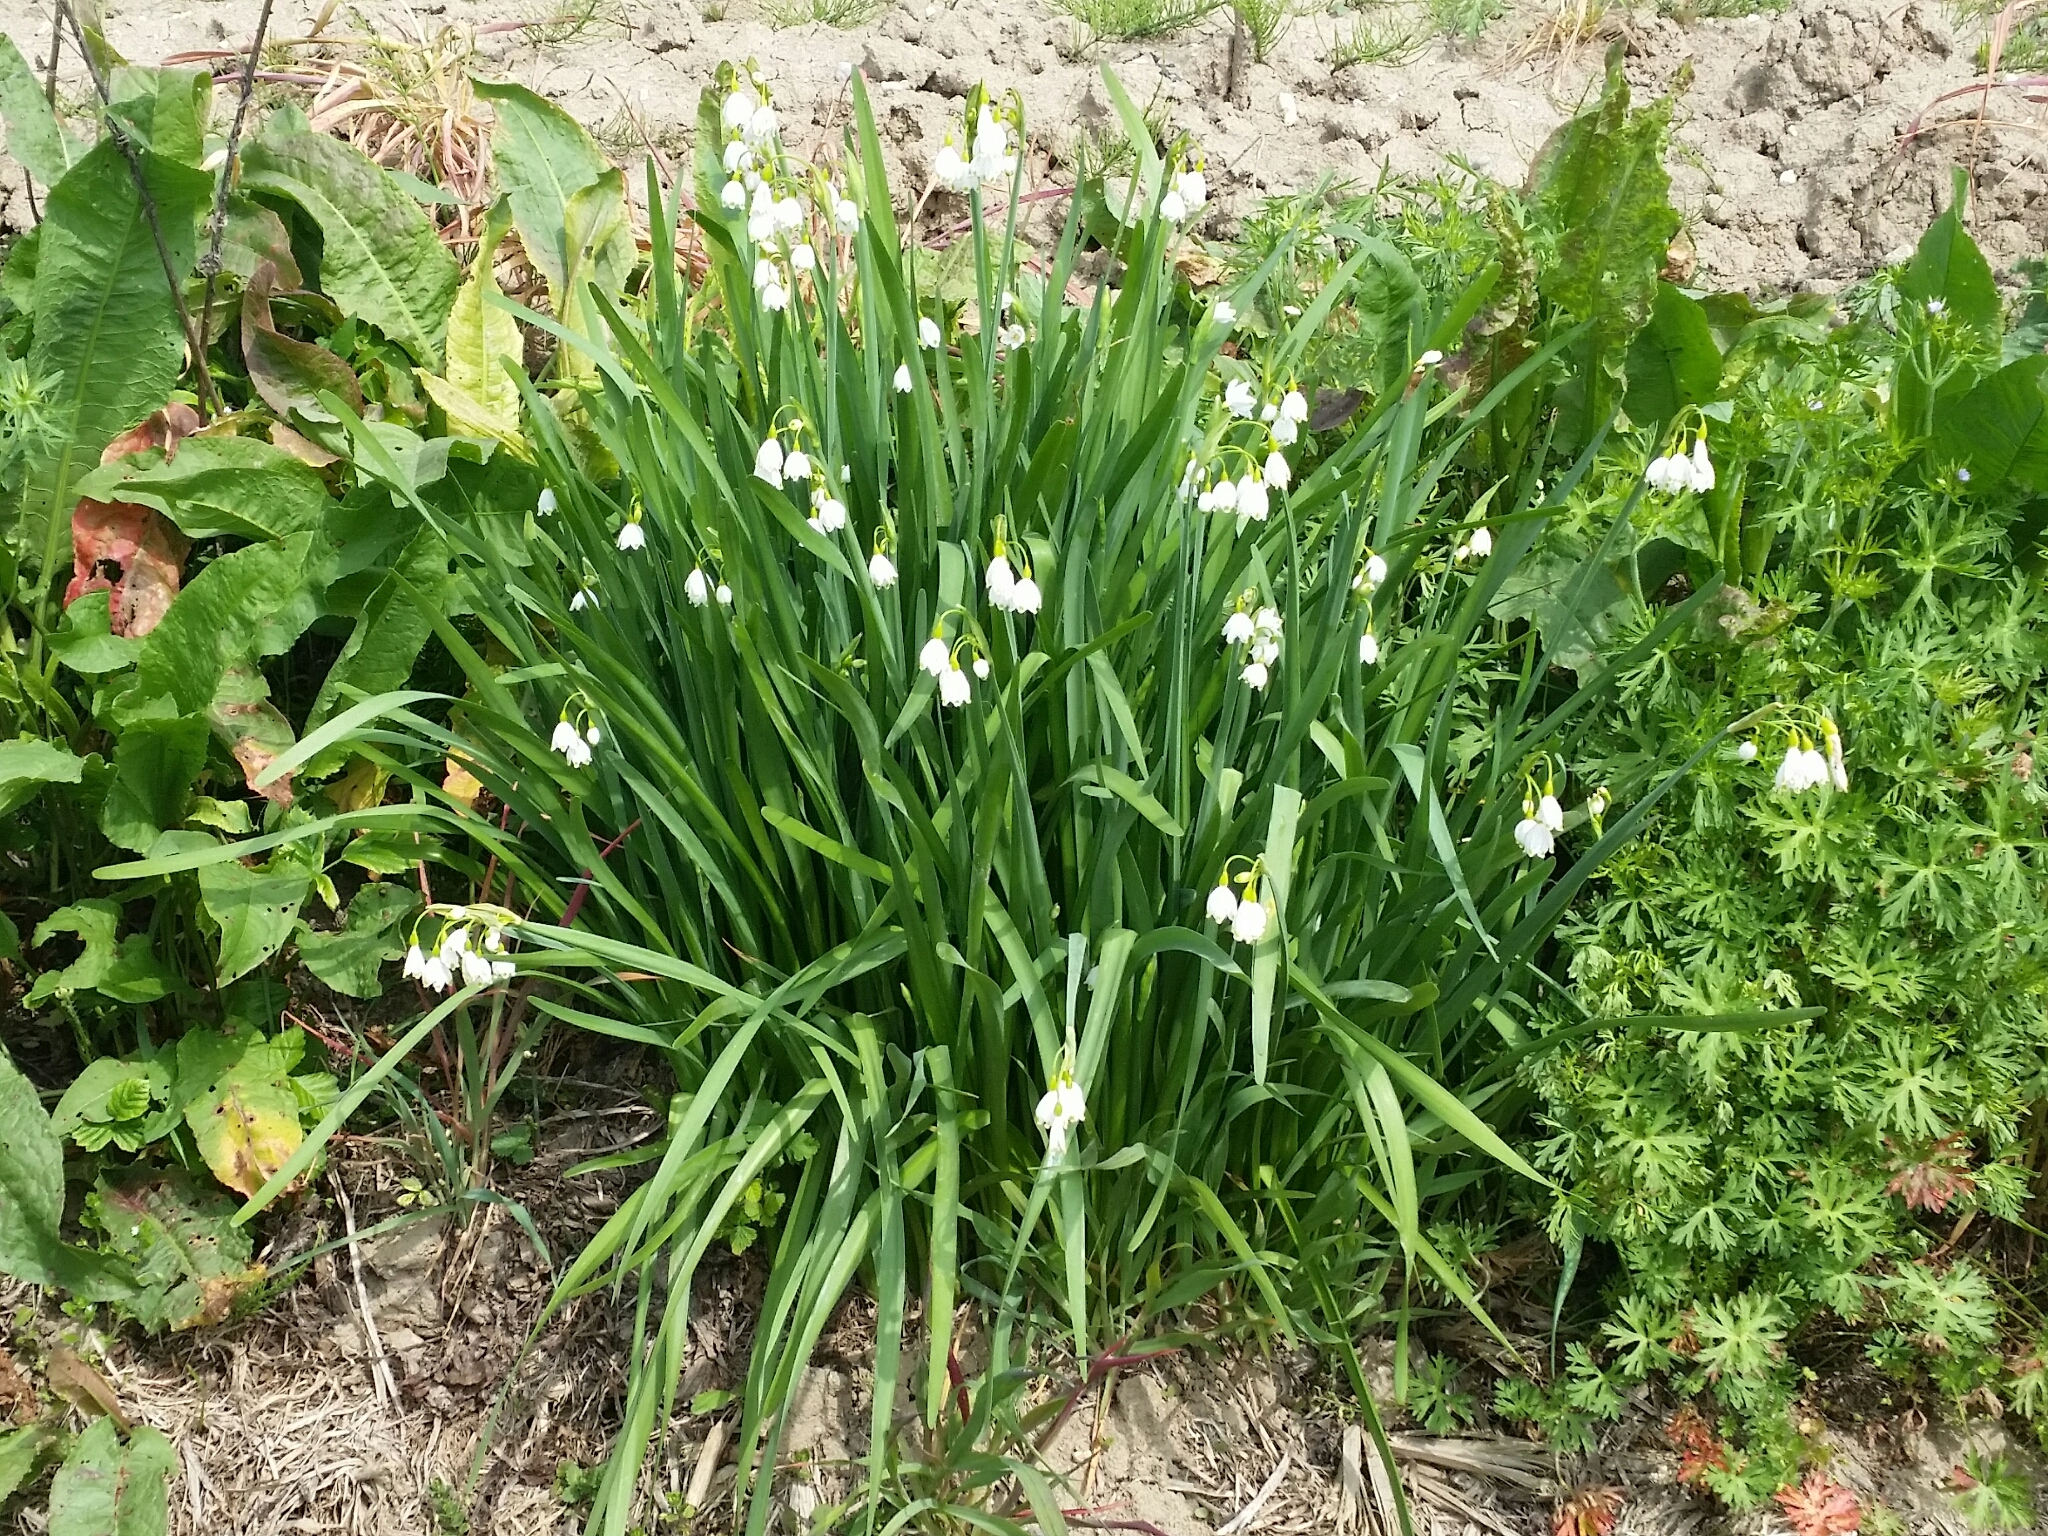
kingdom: Plantae
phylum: Tracheophyta
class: Liliopsida
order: Asparagales
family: Amaryllidaceae
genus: Leucojum
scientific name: Leucojum aestivum
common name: Summer snowflake
